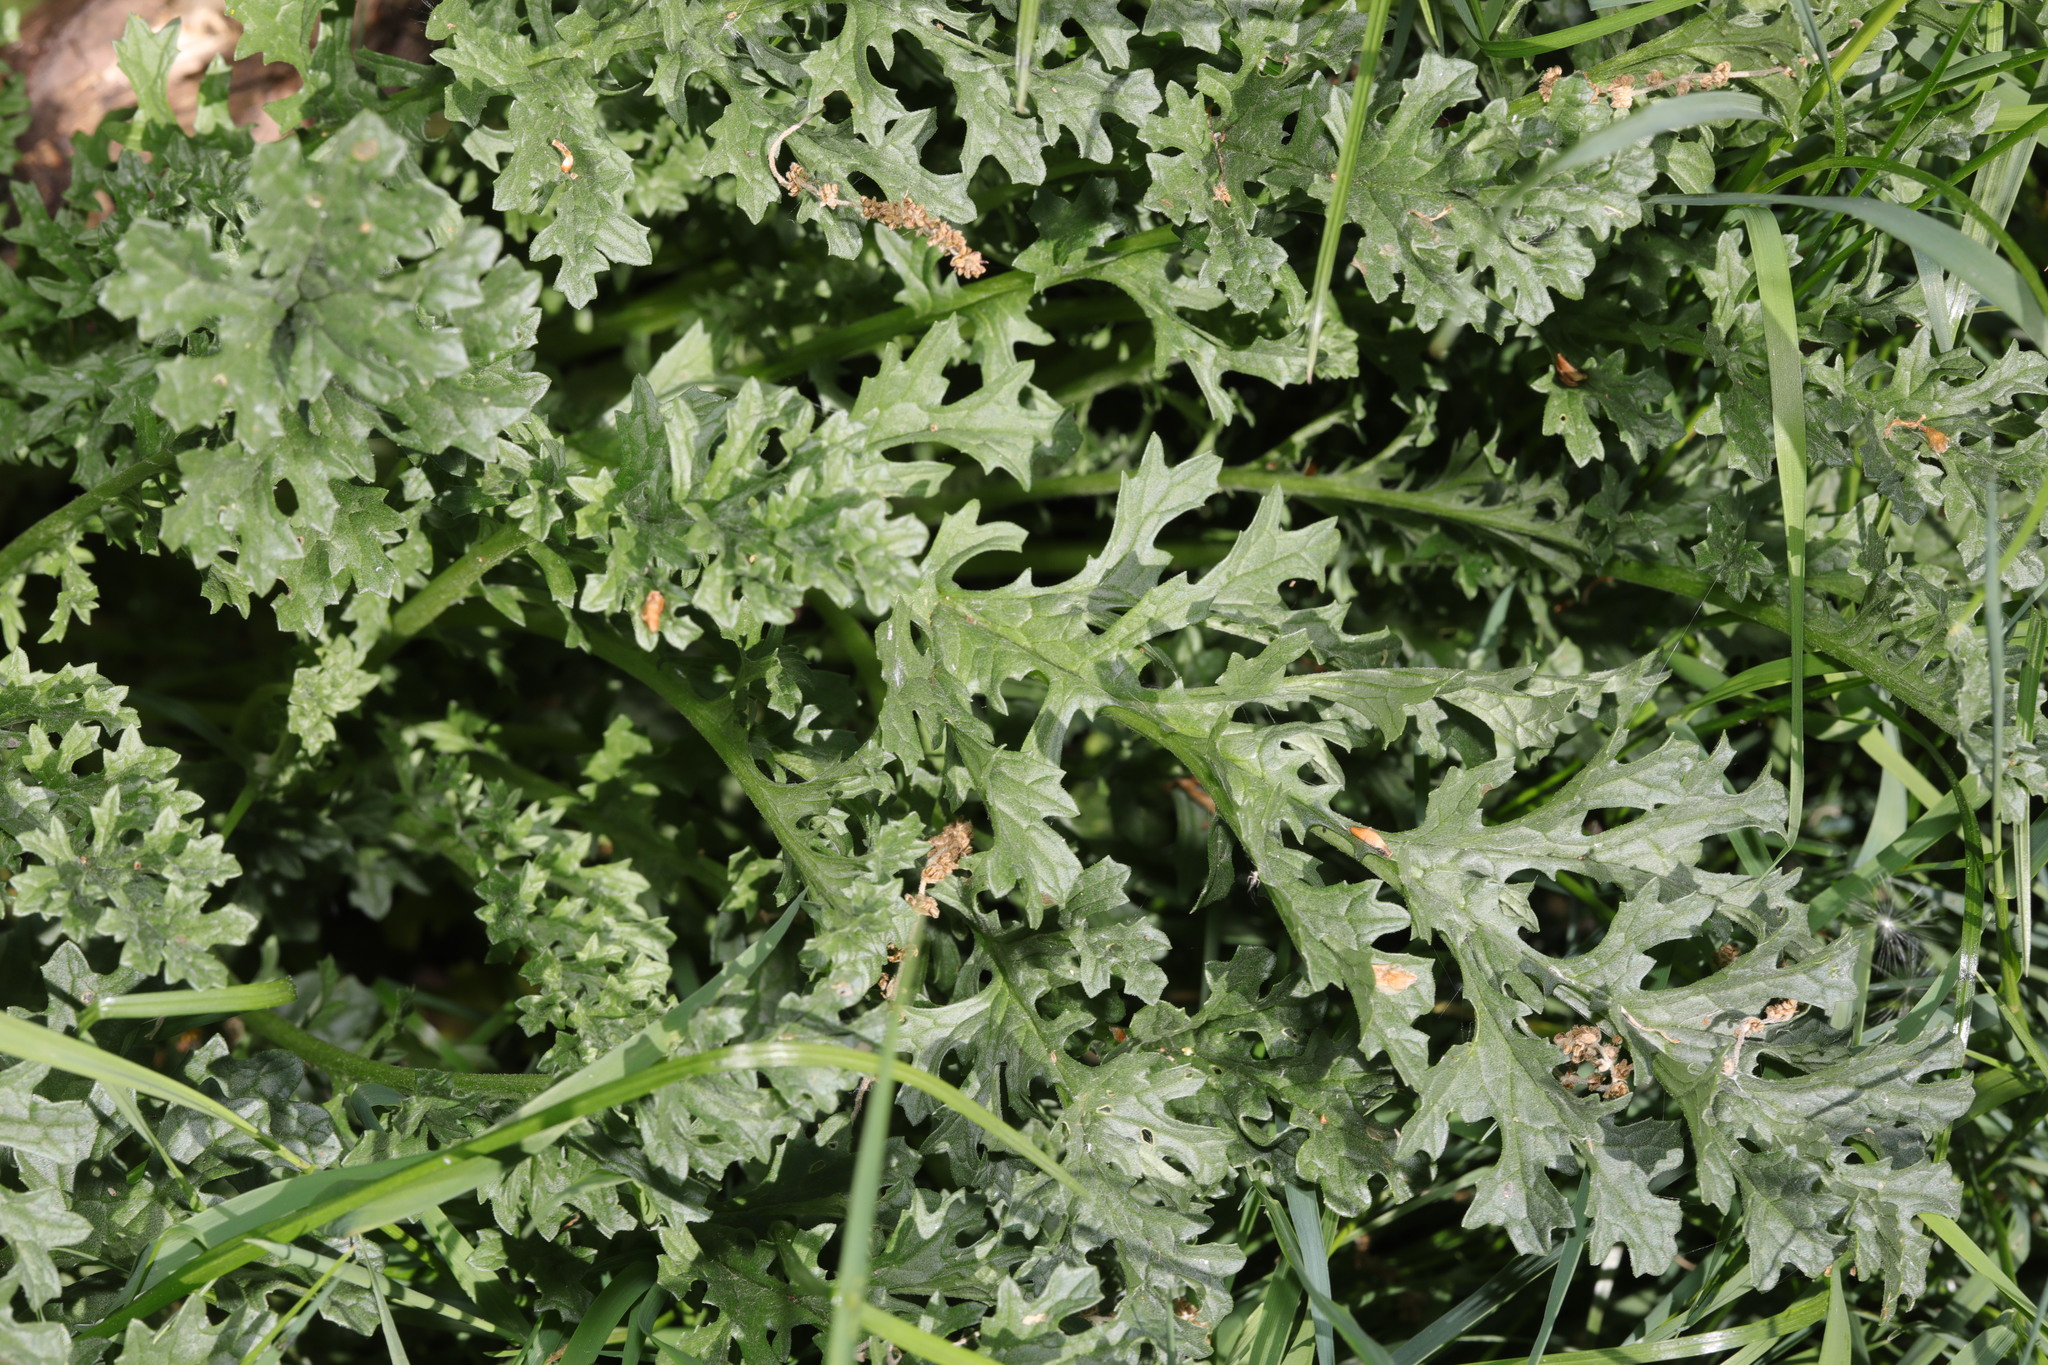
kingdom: Plantae
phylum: Tracheophyta
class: Magnoliopsida
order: Asterales
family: Asteraceae
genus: Jacobaea
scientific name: Jacobaea vulgaris
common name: Stinking willie
